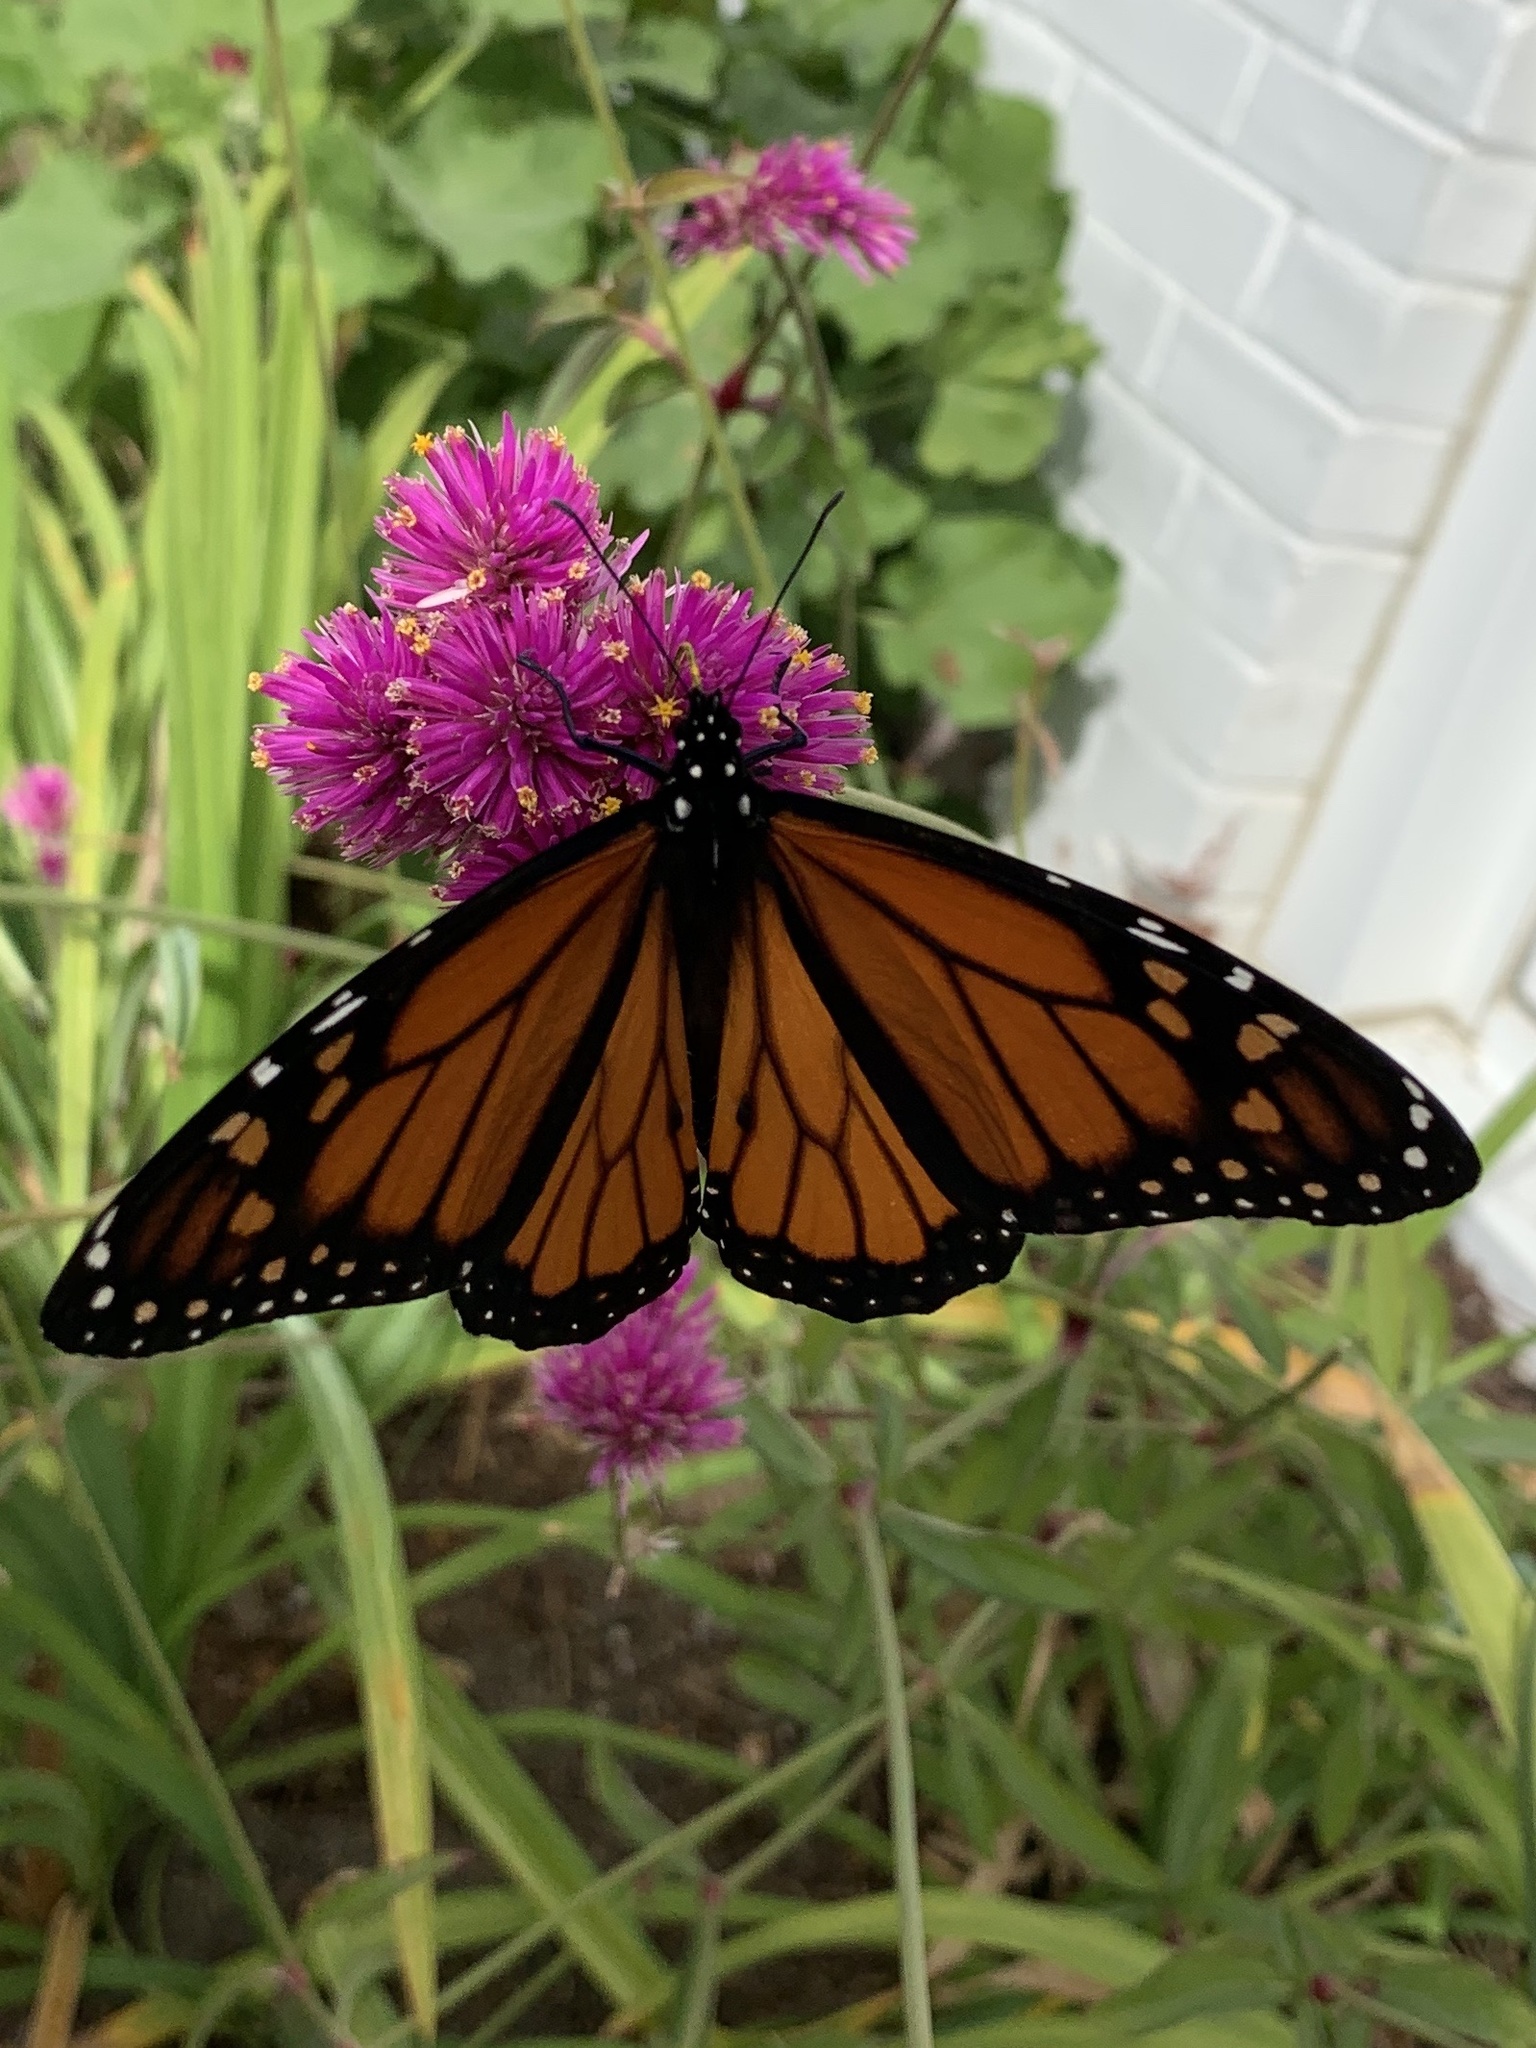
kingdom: Animalia
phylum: Arthropoda
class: Insecta
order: Lepidoptera
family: Nymphalidae
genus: Danaus
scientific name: Danaus plexippus
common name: Monarch
